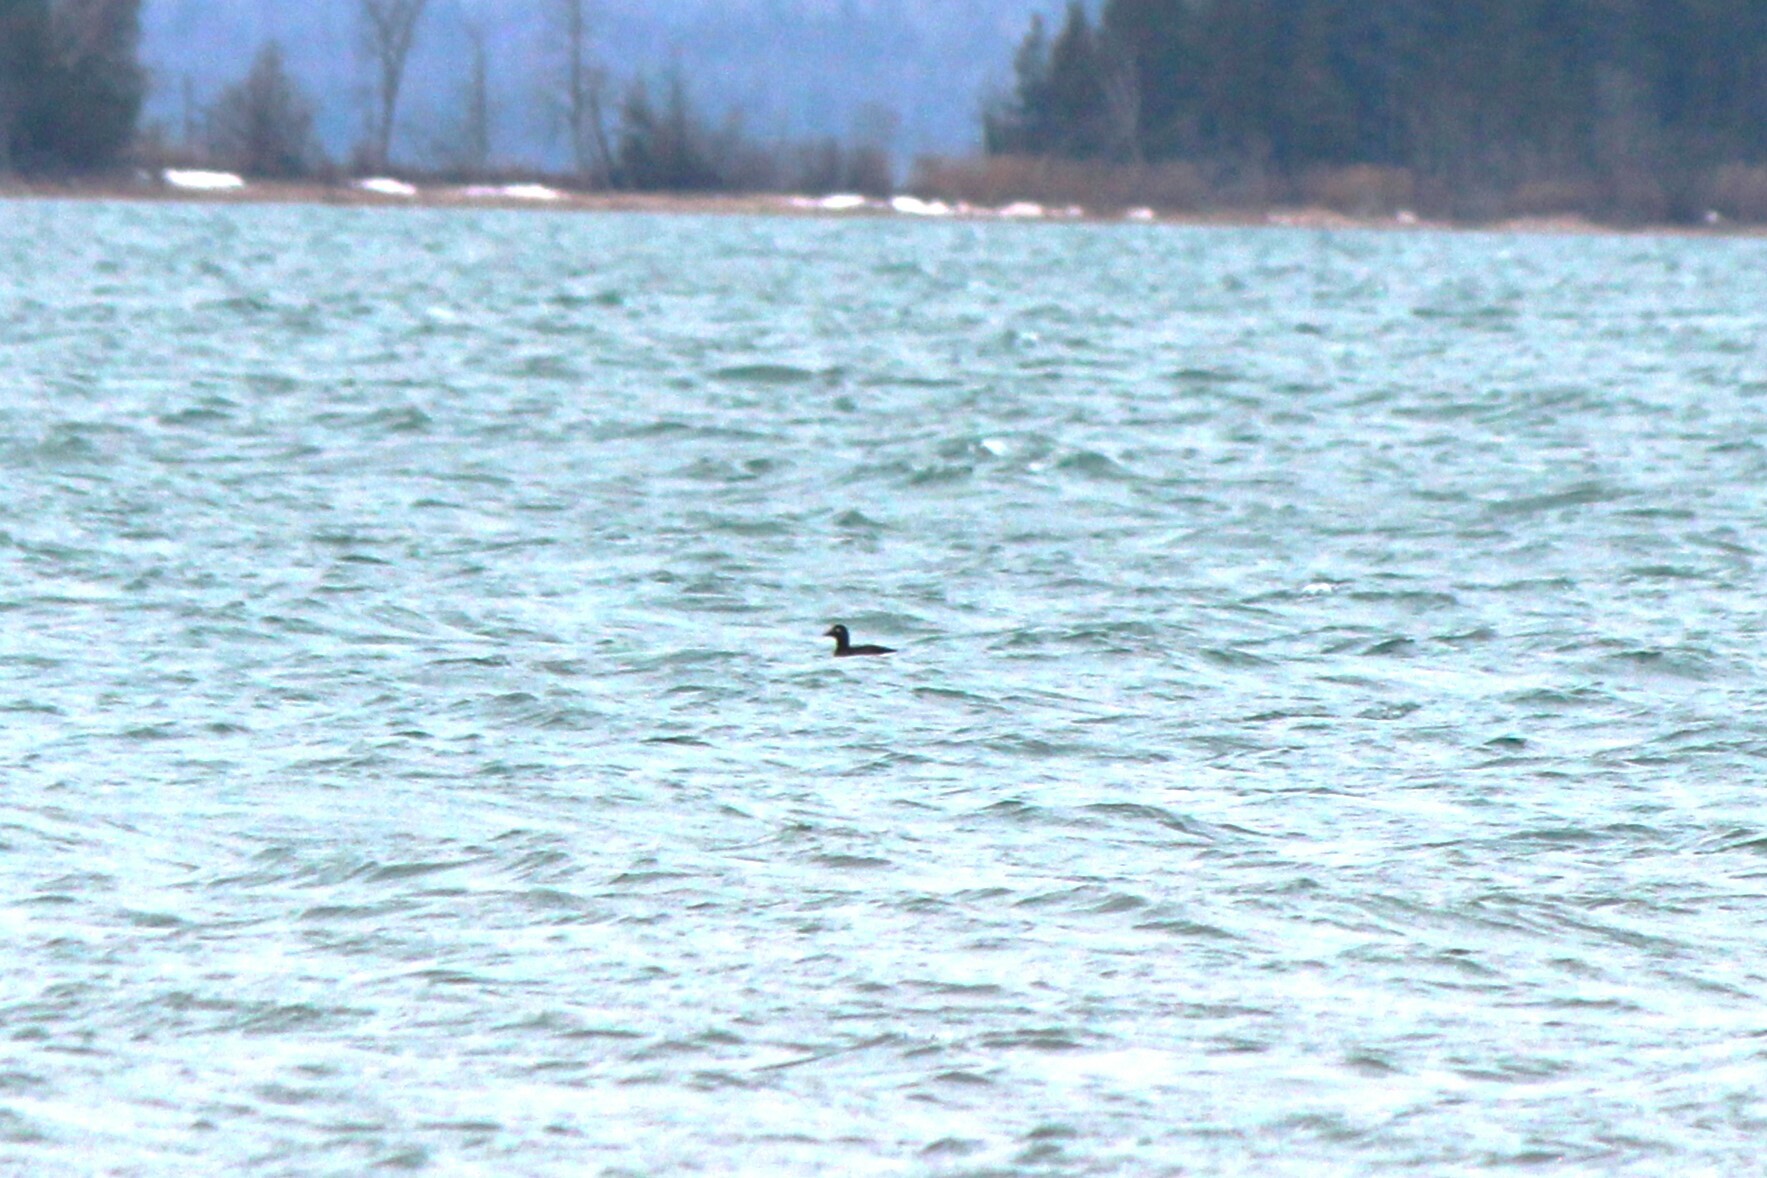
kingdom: Animalia
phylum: Chordata
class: Aves
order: Anseriformes
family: Anatidae
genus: Melanitta
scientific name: Melanitta deglandi
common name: White-winged scoter
